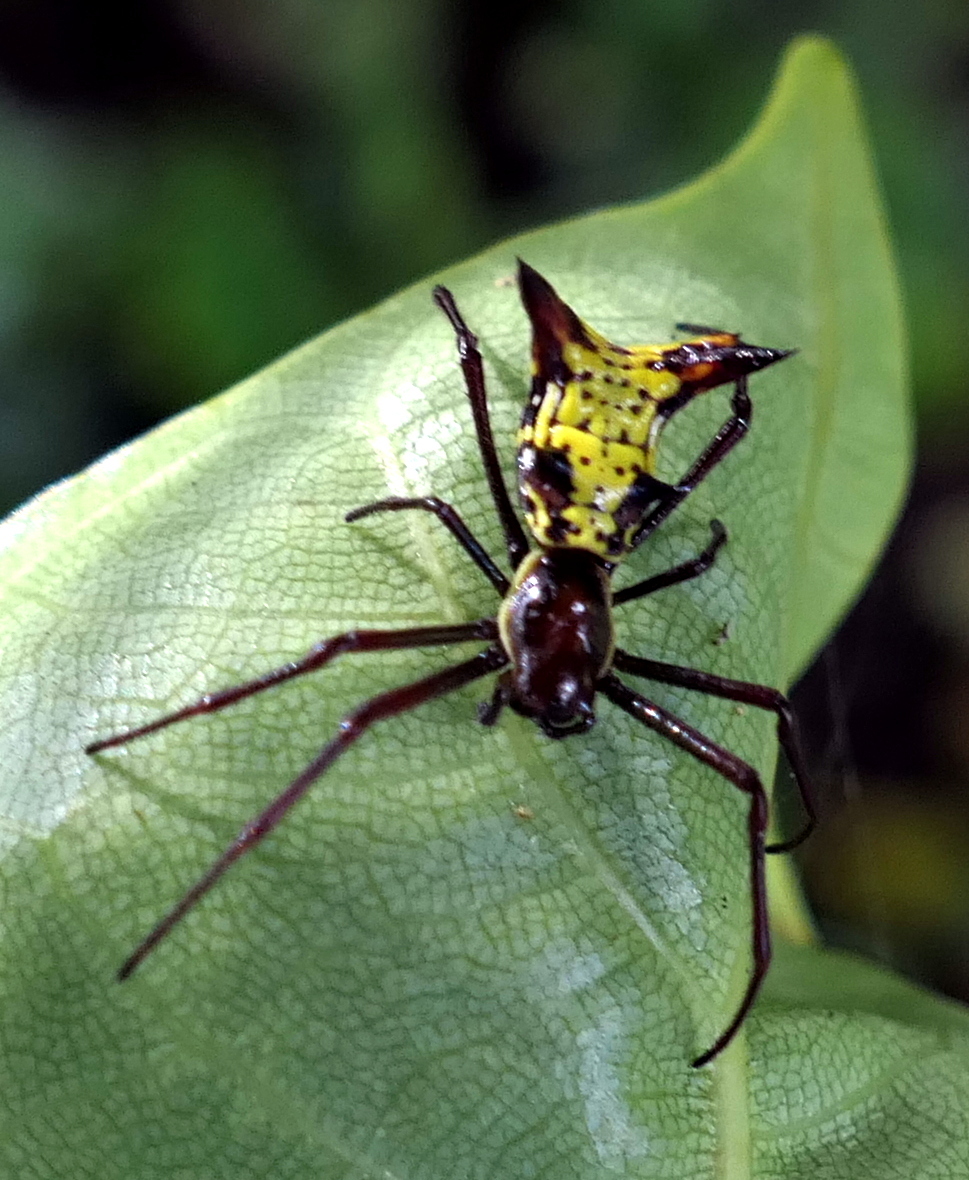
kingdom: Animalia
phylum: Arthropoda
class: Arachnida
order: Araneae
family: Araneidae
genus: Micrathena
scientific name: Micrathena fissispina
